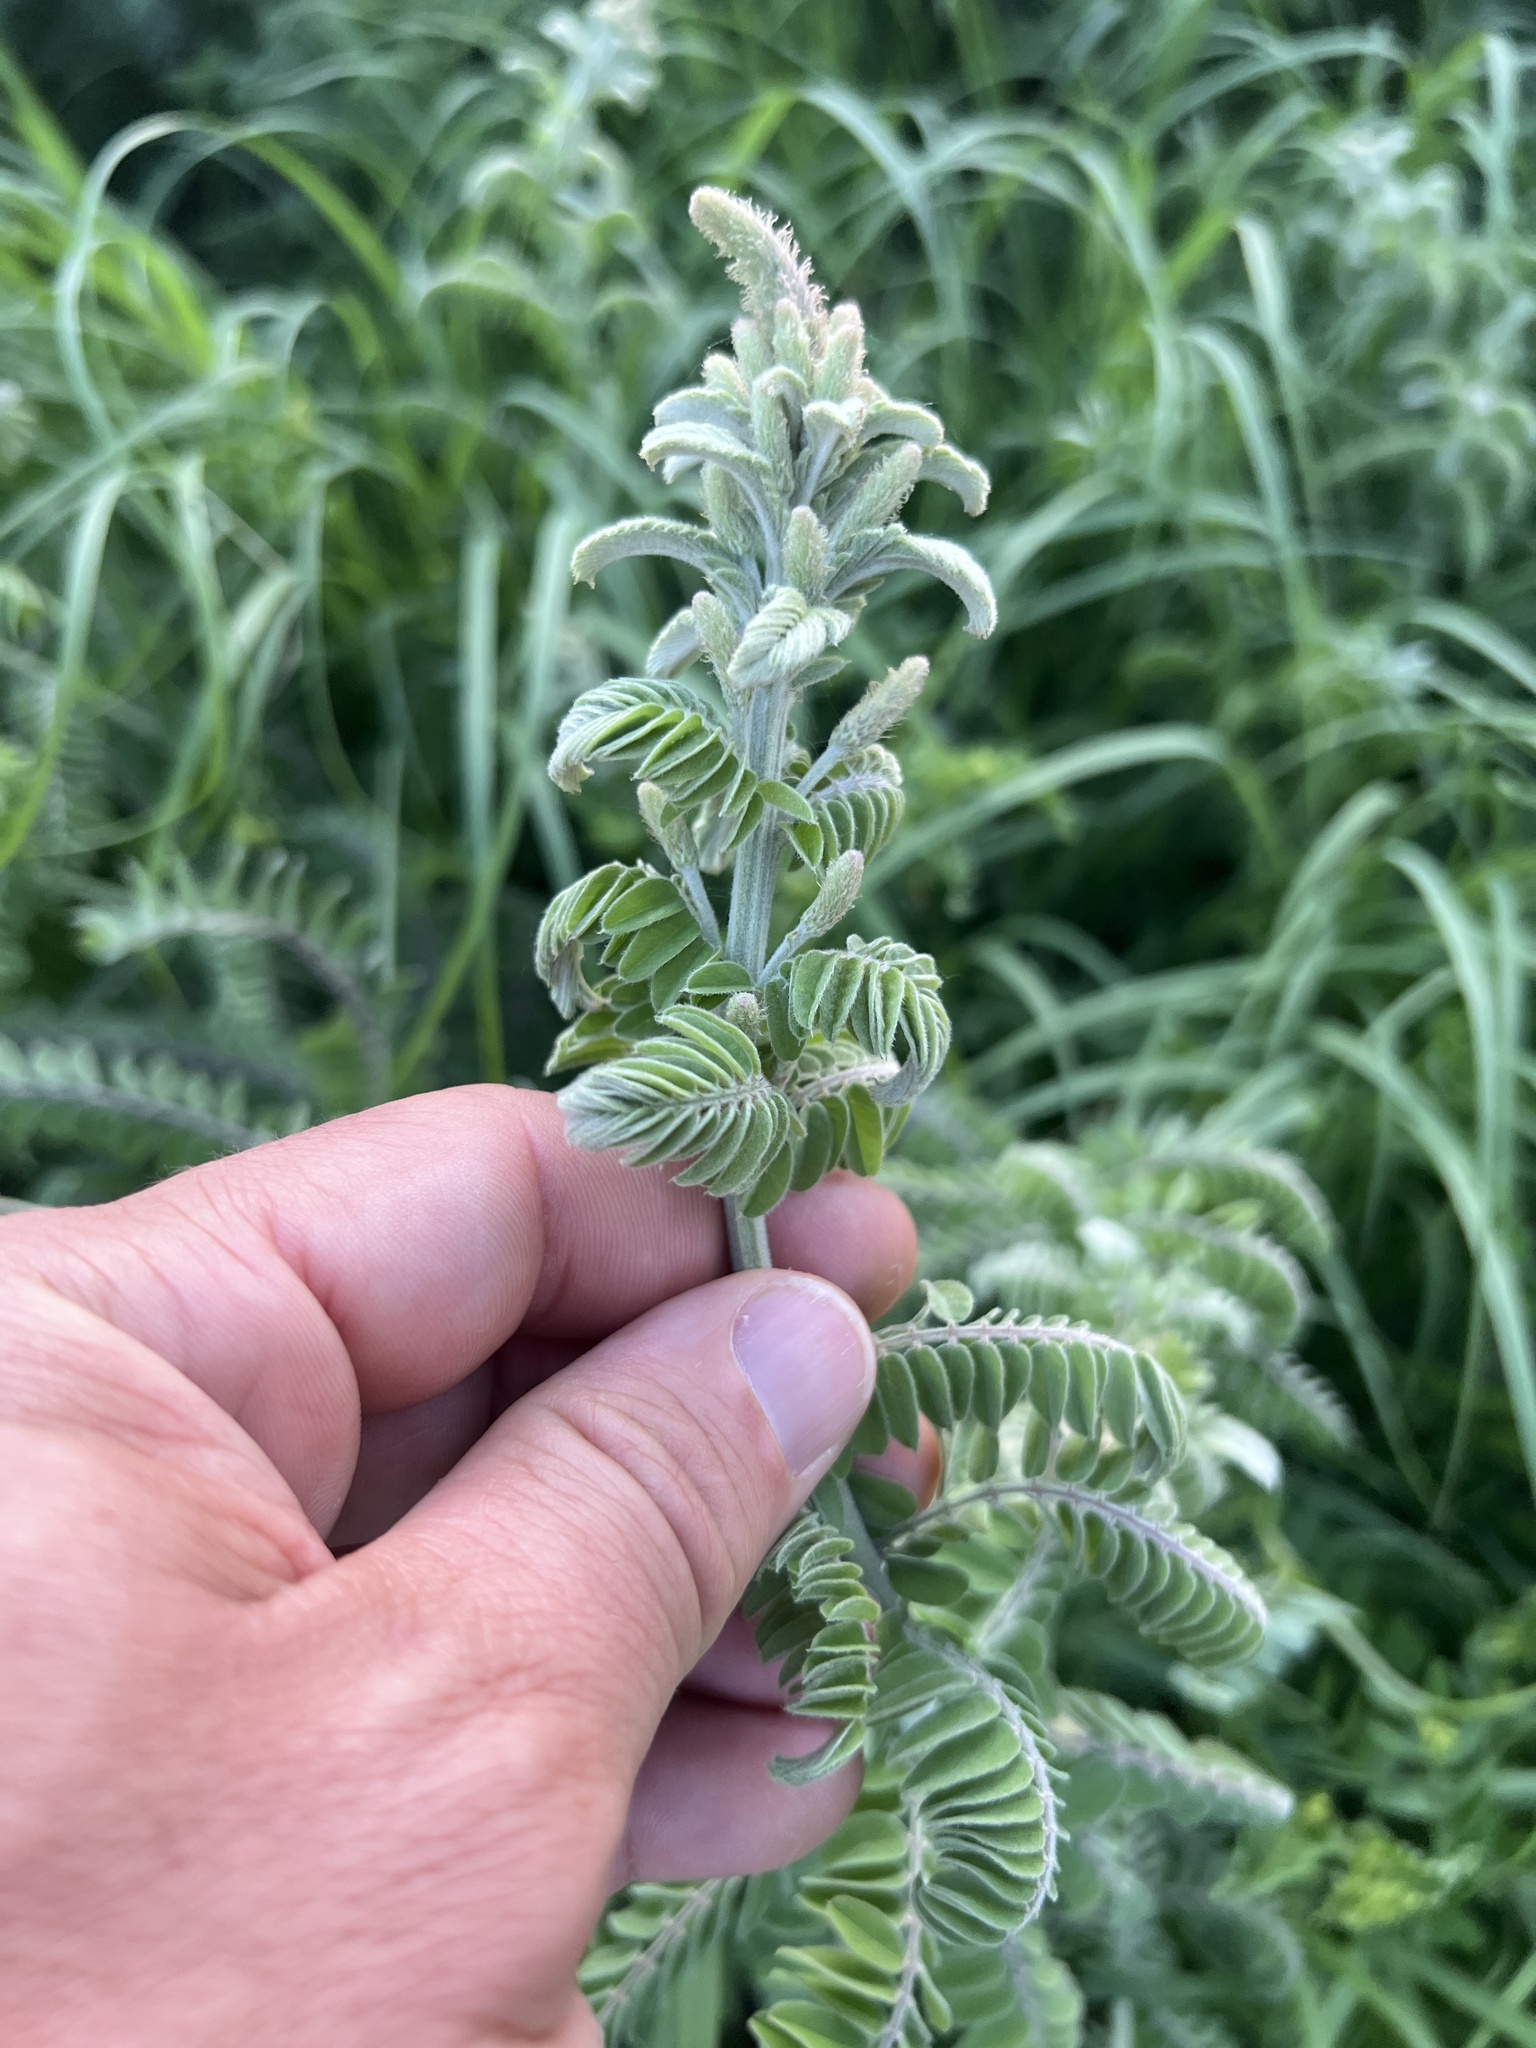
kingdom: Plantae
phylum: Tracheophyta
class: Magnoliopsida
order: Fabales
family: Fabaceae
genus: Amorpha
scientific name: Amorpha canescens
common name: Leadplant
